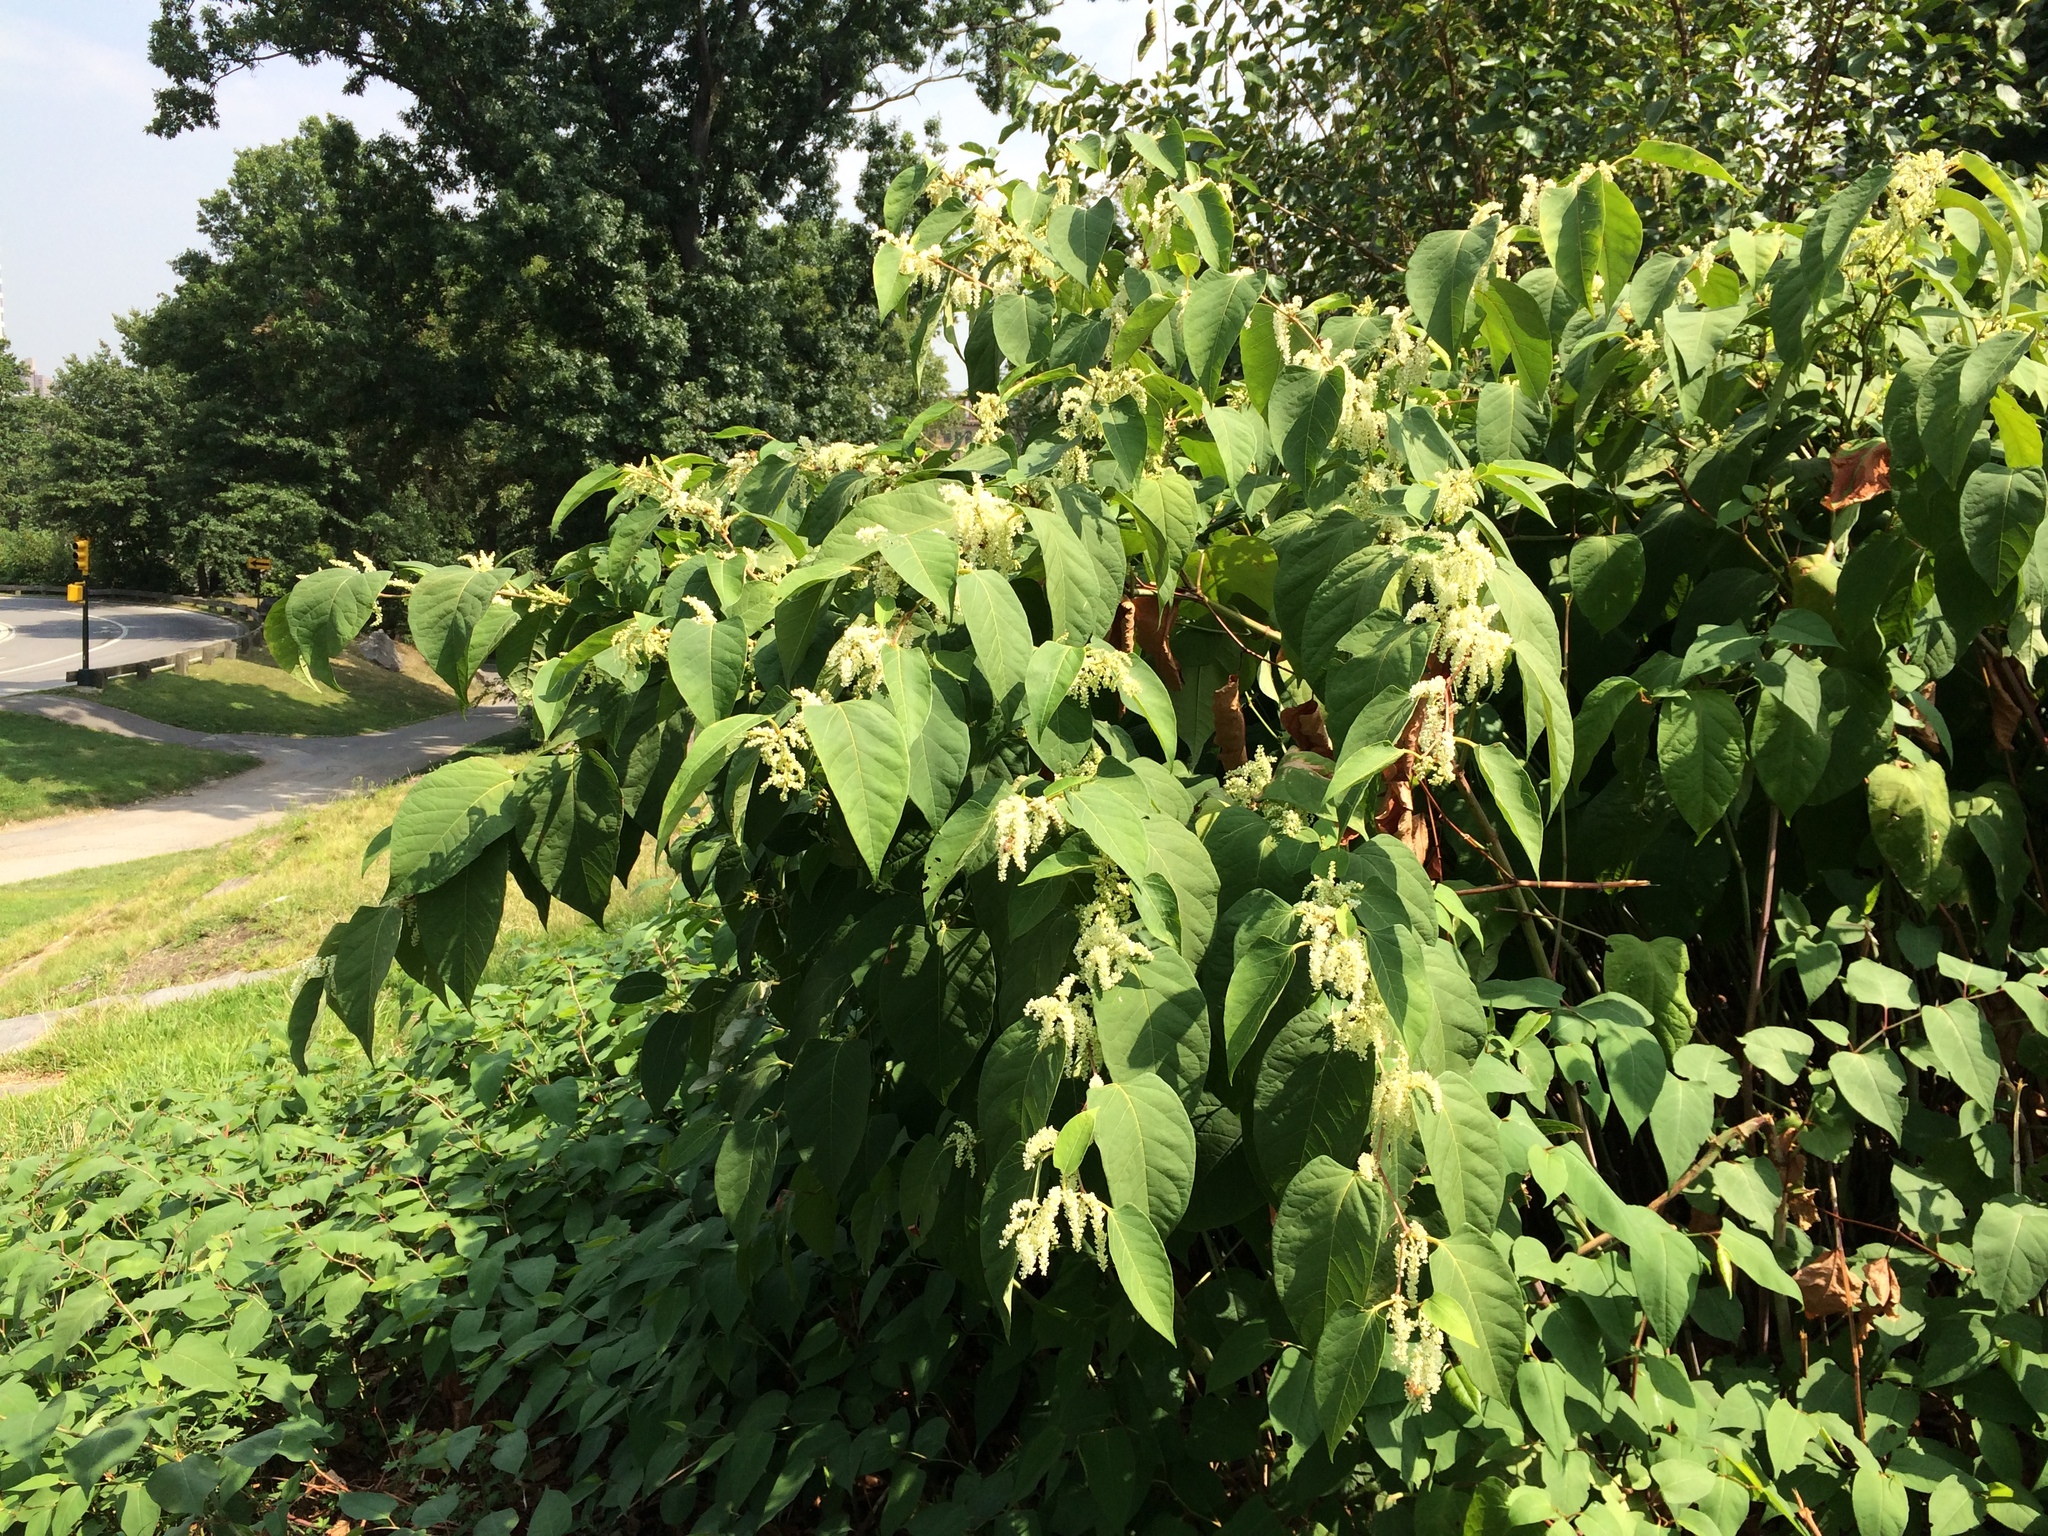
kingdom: Plantae
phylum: Tracheophyta
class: Magnoliopsida
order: Caryophyllales
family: Polygonaceae
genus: Reynoutria
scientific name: Reynoutria japonica
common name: Japanese knotweed
